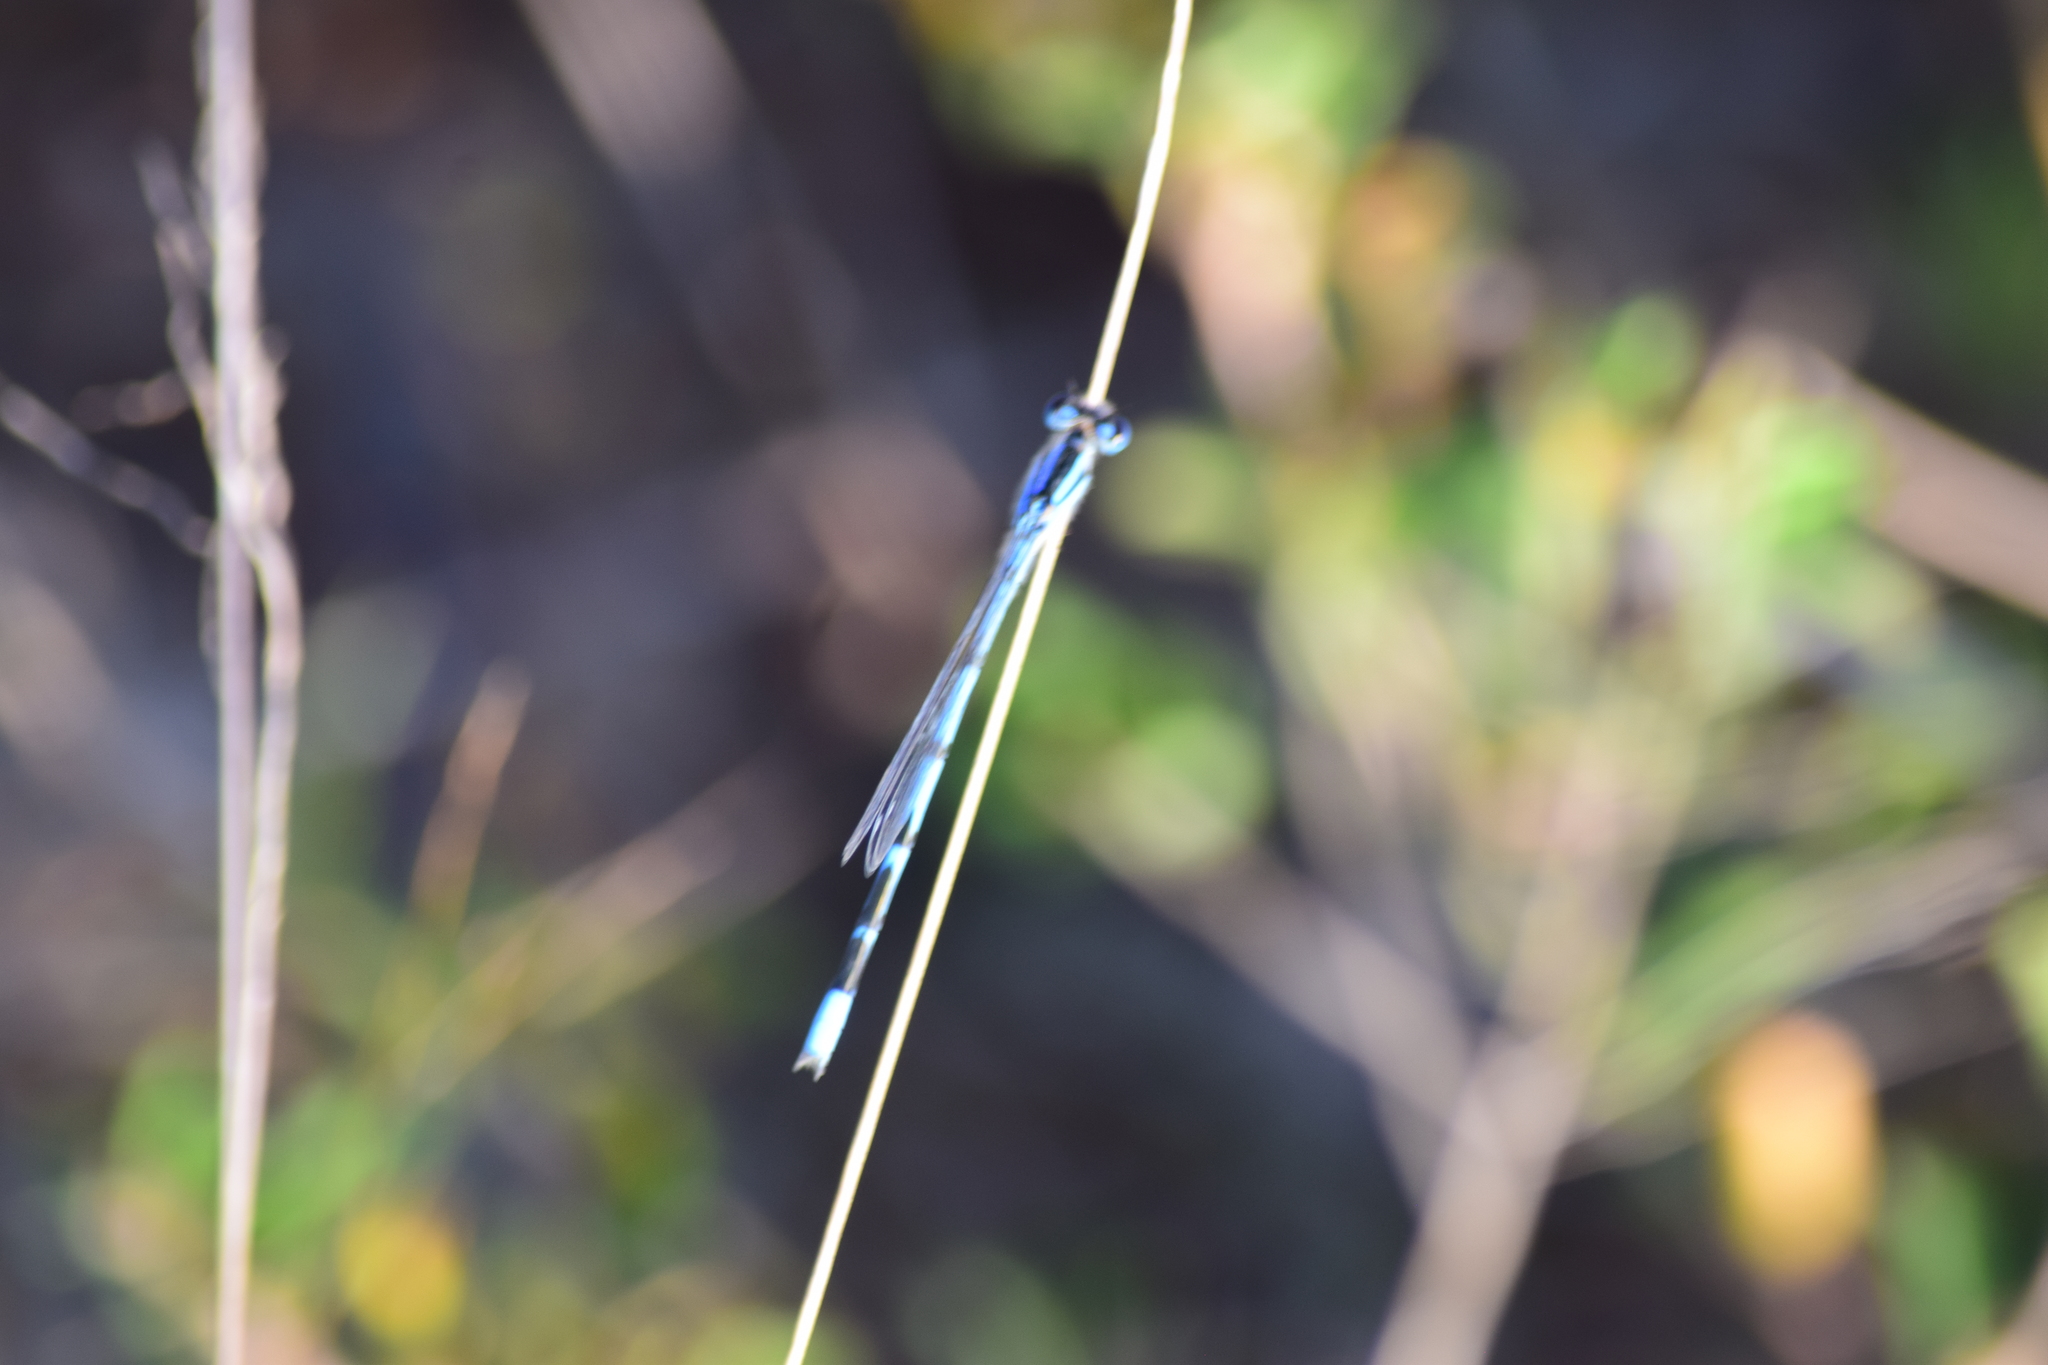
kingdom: Animalia
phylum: Arthropoda
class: Insecta
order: Odonata
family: Coenagrionidae
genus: Enallagma
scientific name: Enallagma civile
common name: Damselfly
